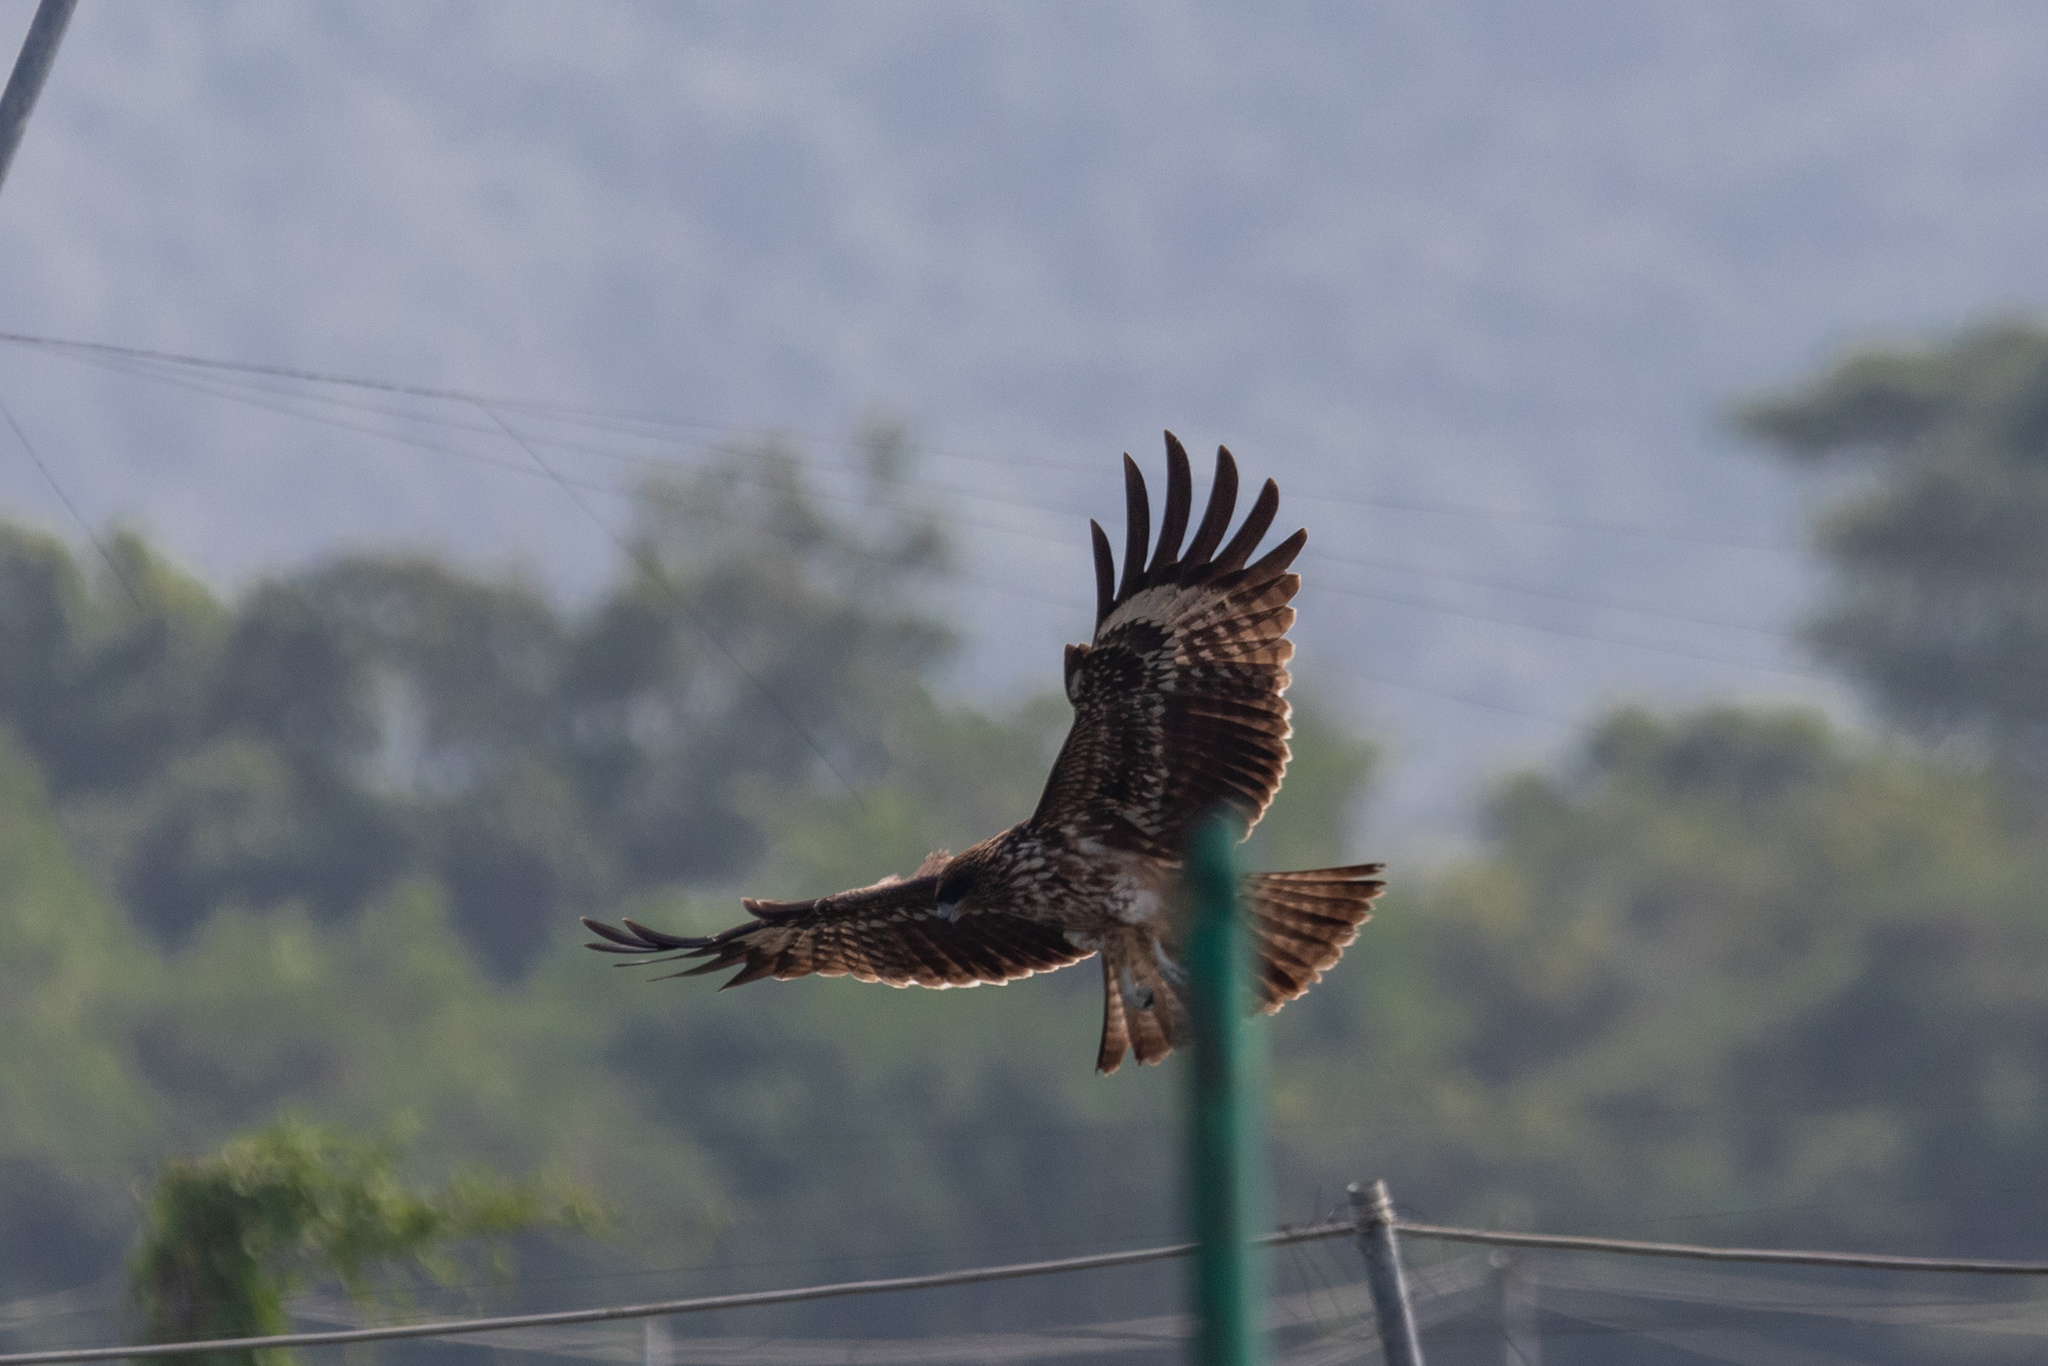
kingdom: Animalia
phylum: Chordata
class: Aves
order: Accipitriformes
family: Accipitridae
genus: Milvus
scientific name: Milvus migrans
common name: Black kite
